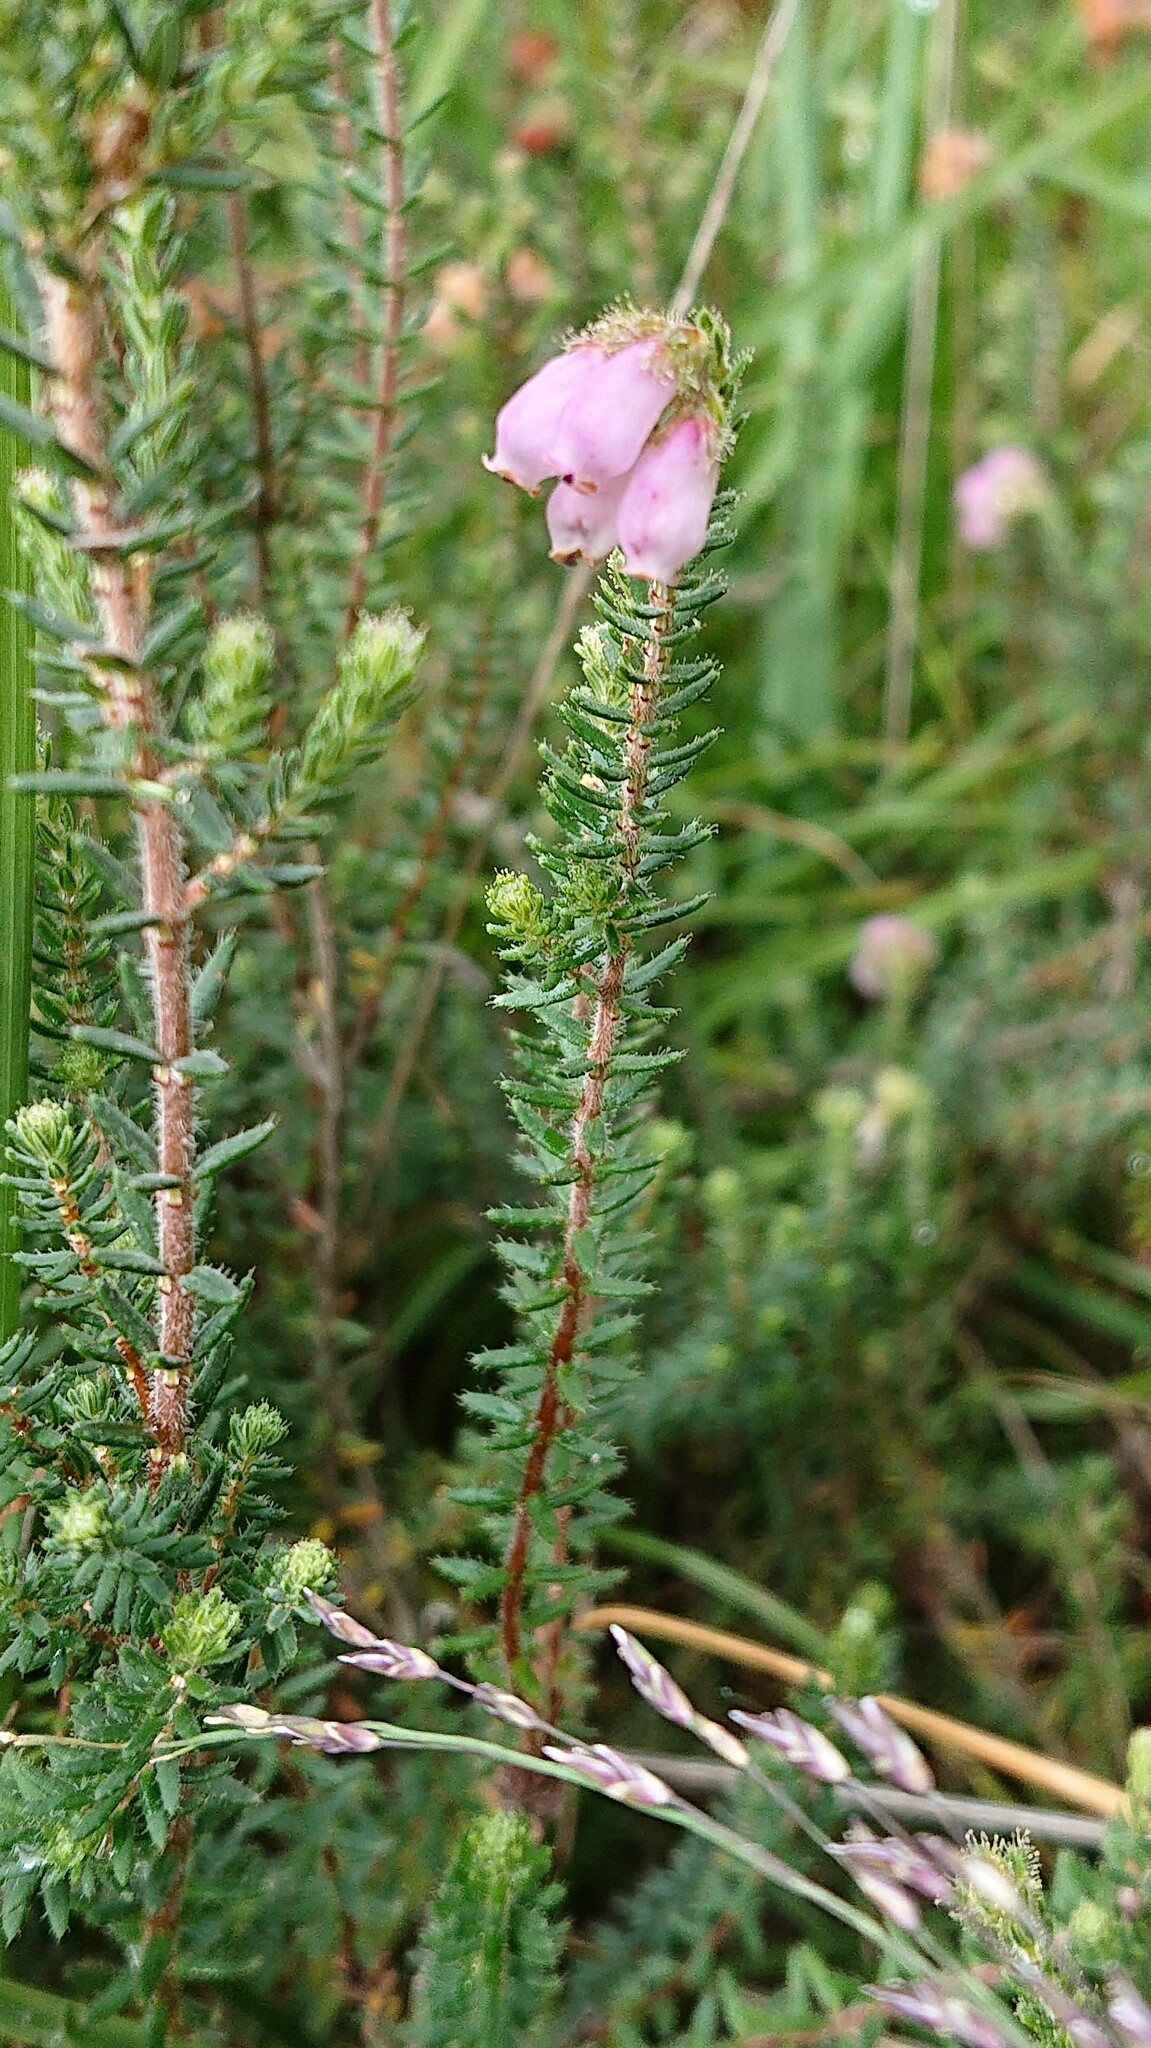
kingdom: Plantae
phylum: Tracheophyta
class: Magnoliopsida
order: Ericales
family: Ericaceae
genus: Erica
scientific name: Erica tetralix
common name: Cross-leaved heath
